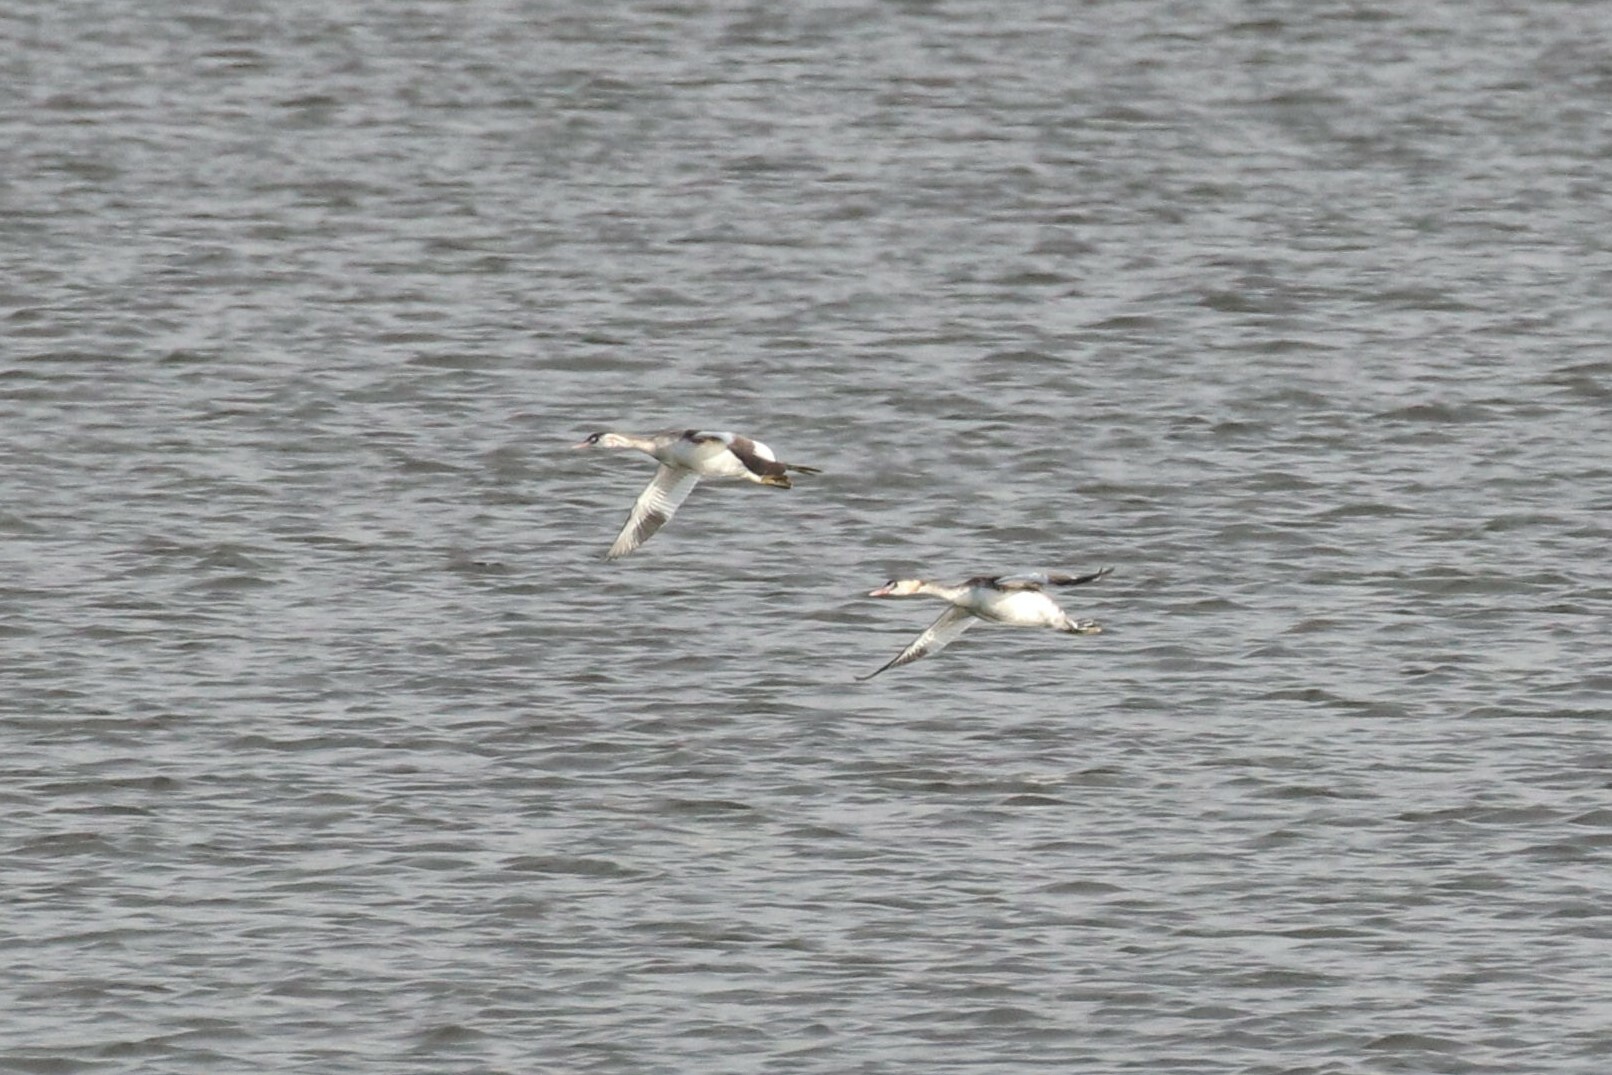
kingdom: Animalia
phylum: Chordata
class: Aves
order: Podicipediformes
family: Podicipedidae
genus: Podiceps
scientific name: Podiceps cristatus
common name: Great crested grebe
